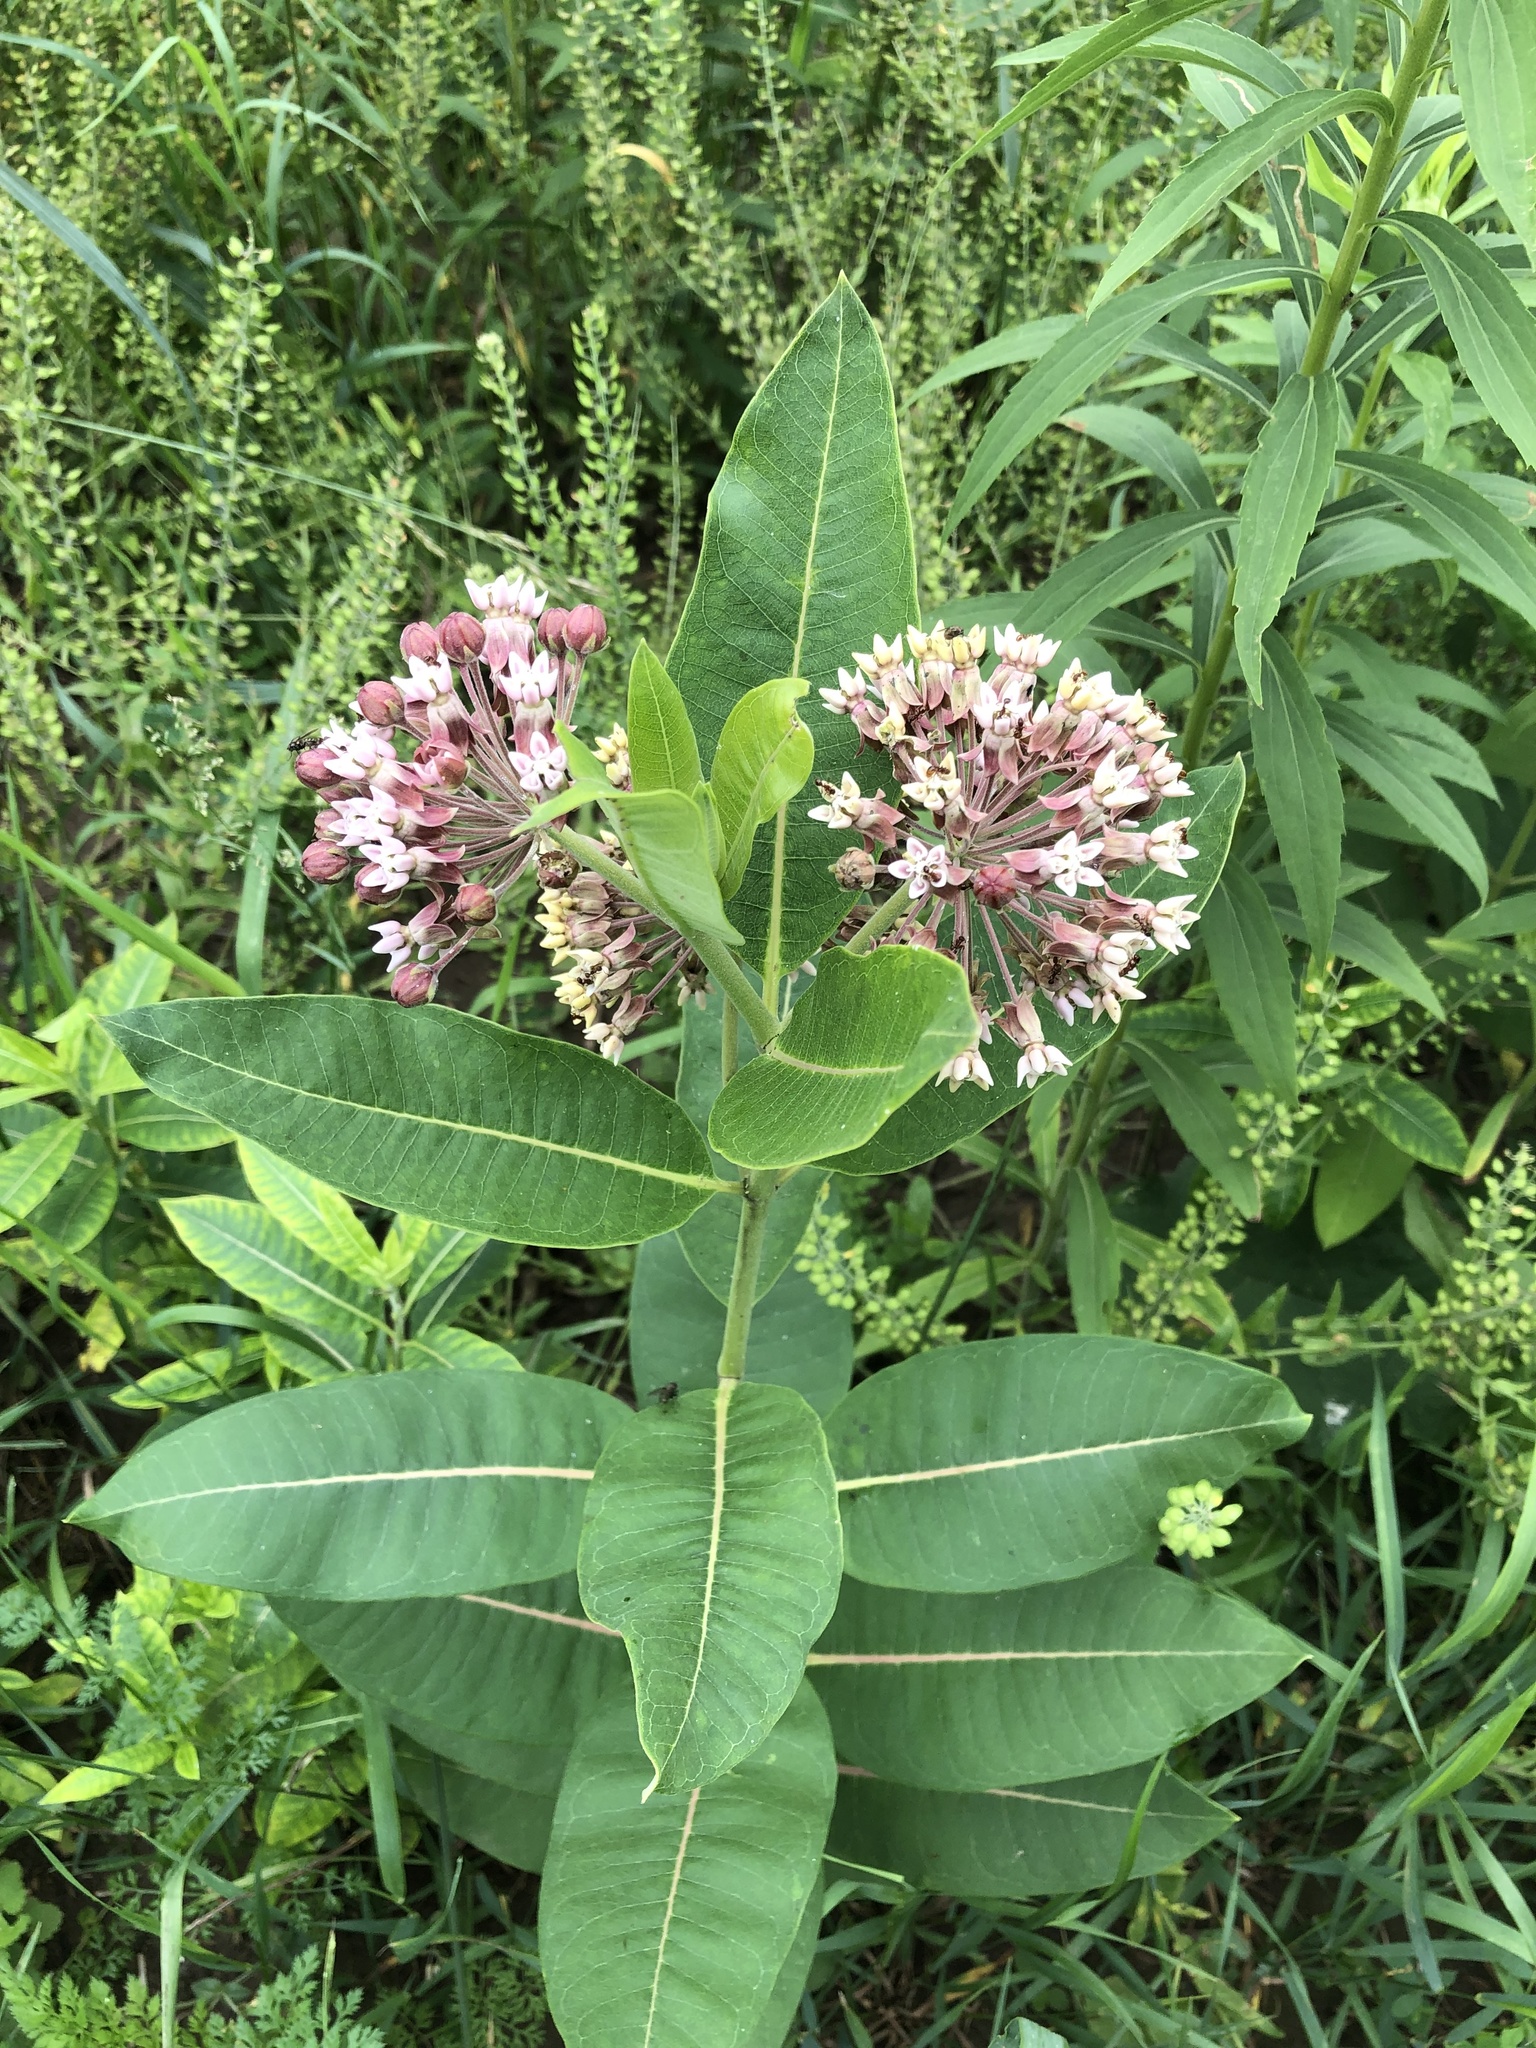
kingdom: Plantae
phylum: Tracheophyta
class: Magnoliopsida
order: Gentianales
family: Apocynaceae
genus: Asclepias
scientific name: Asclepias syriaca
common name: Common milkweed
